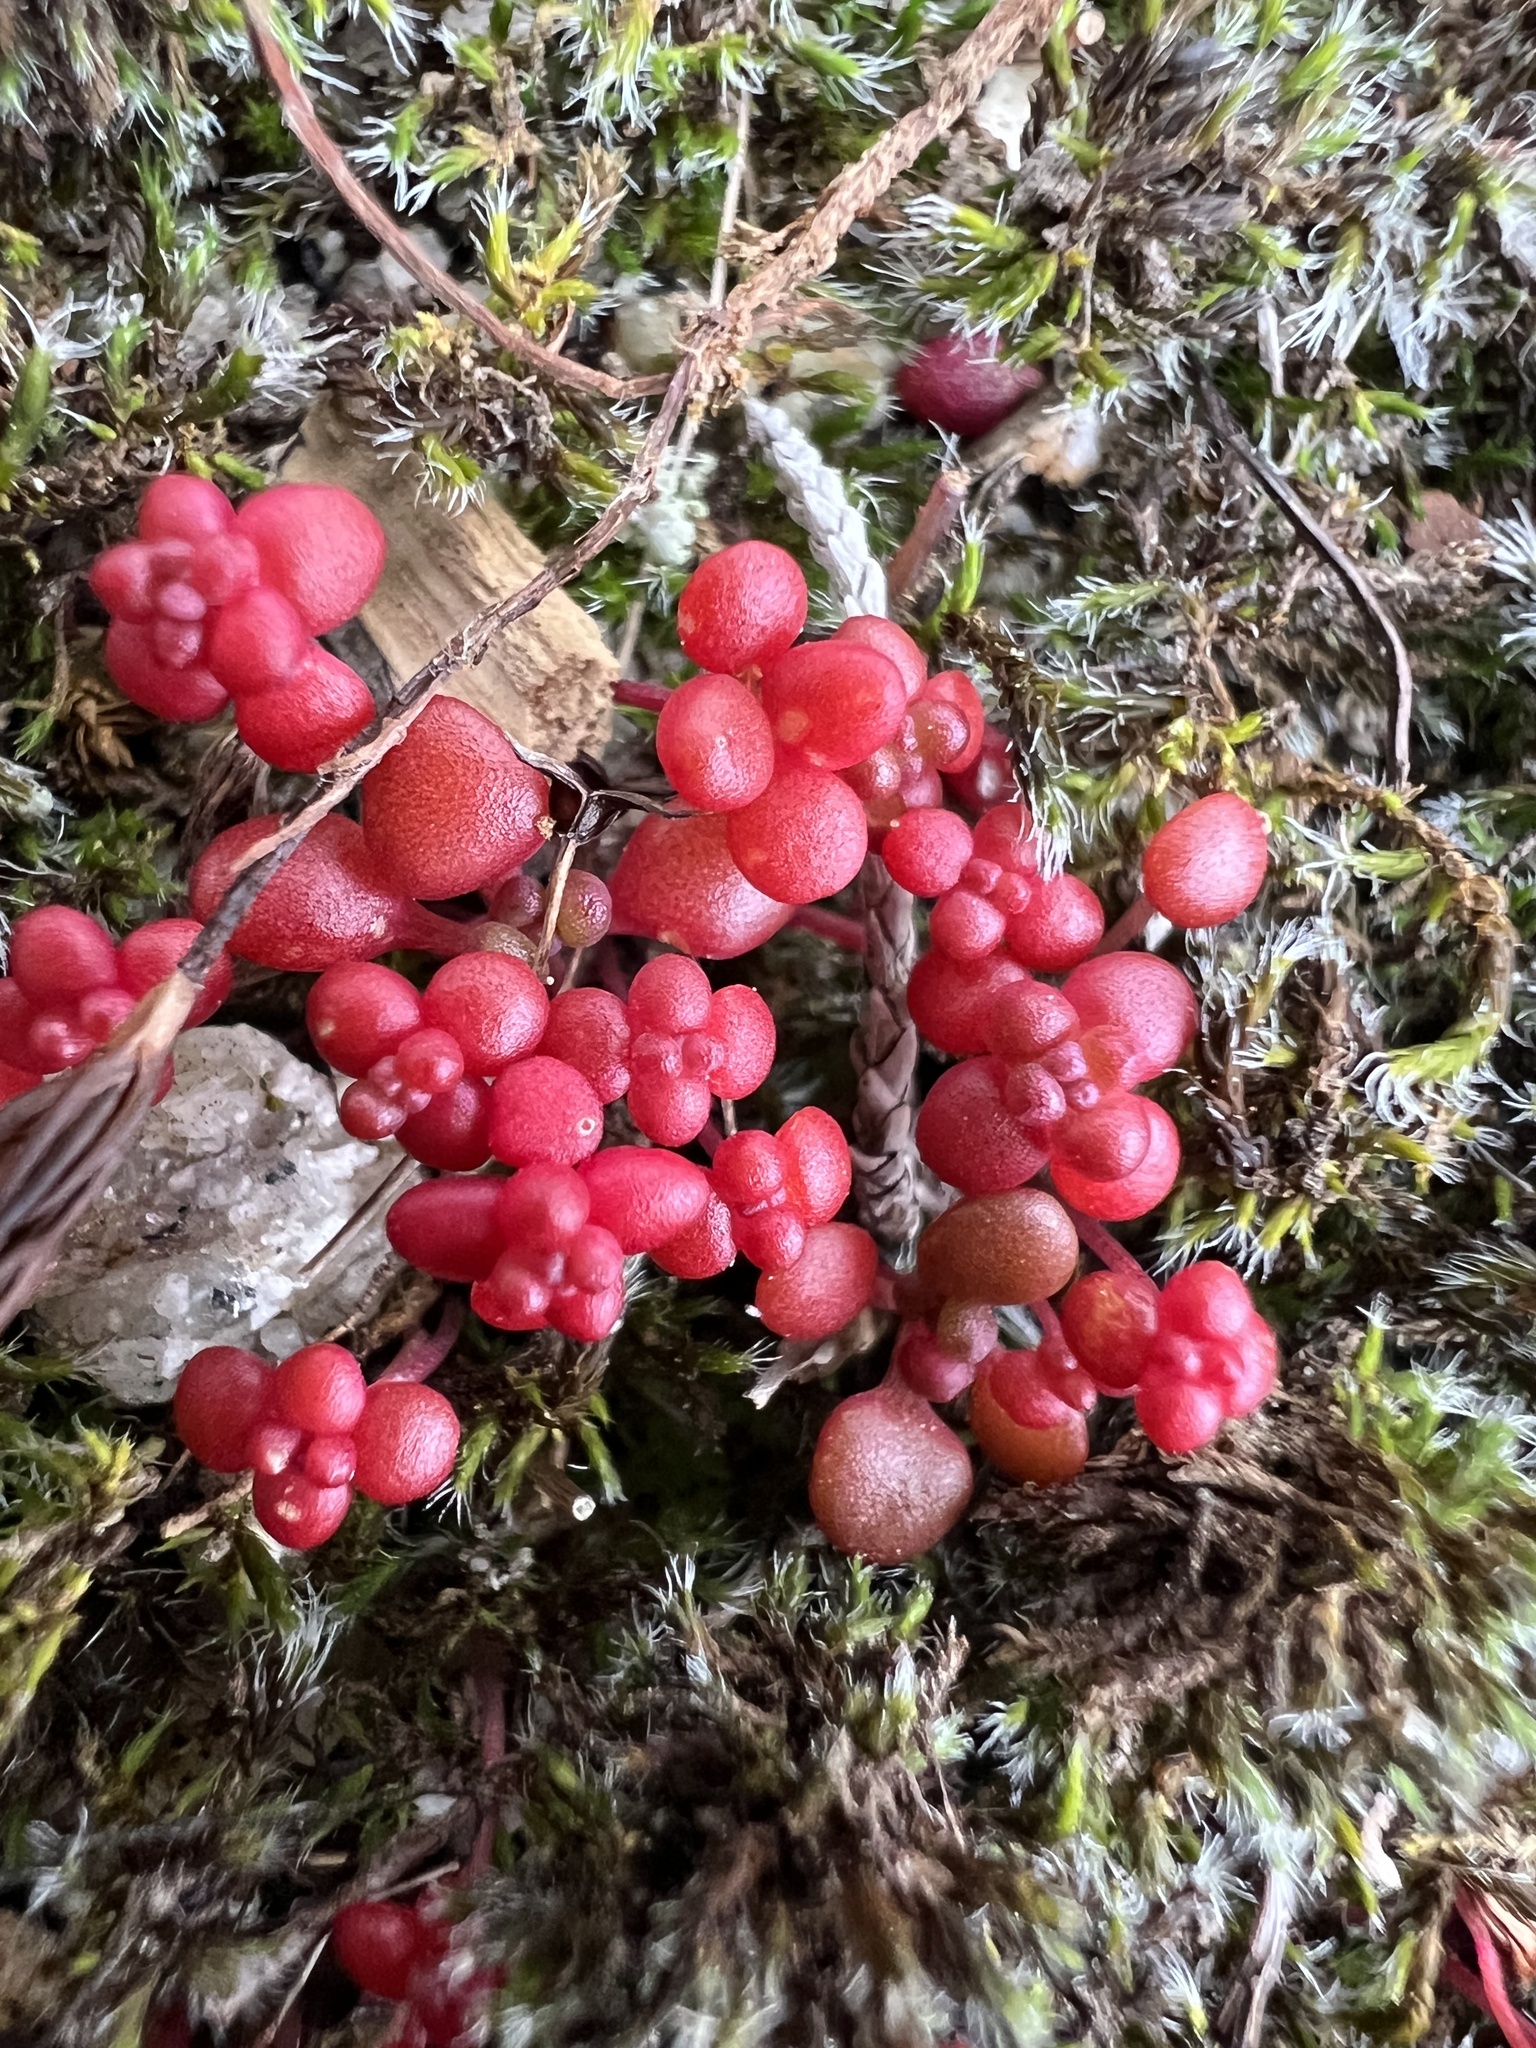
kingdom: Plantae
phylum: Tracheophyta
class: Magnoliopsida
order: Saxifragales
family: Crassulaceae
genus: Sedum
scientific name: Sedum smallii
